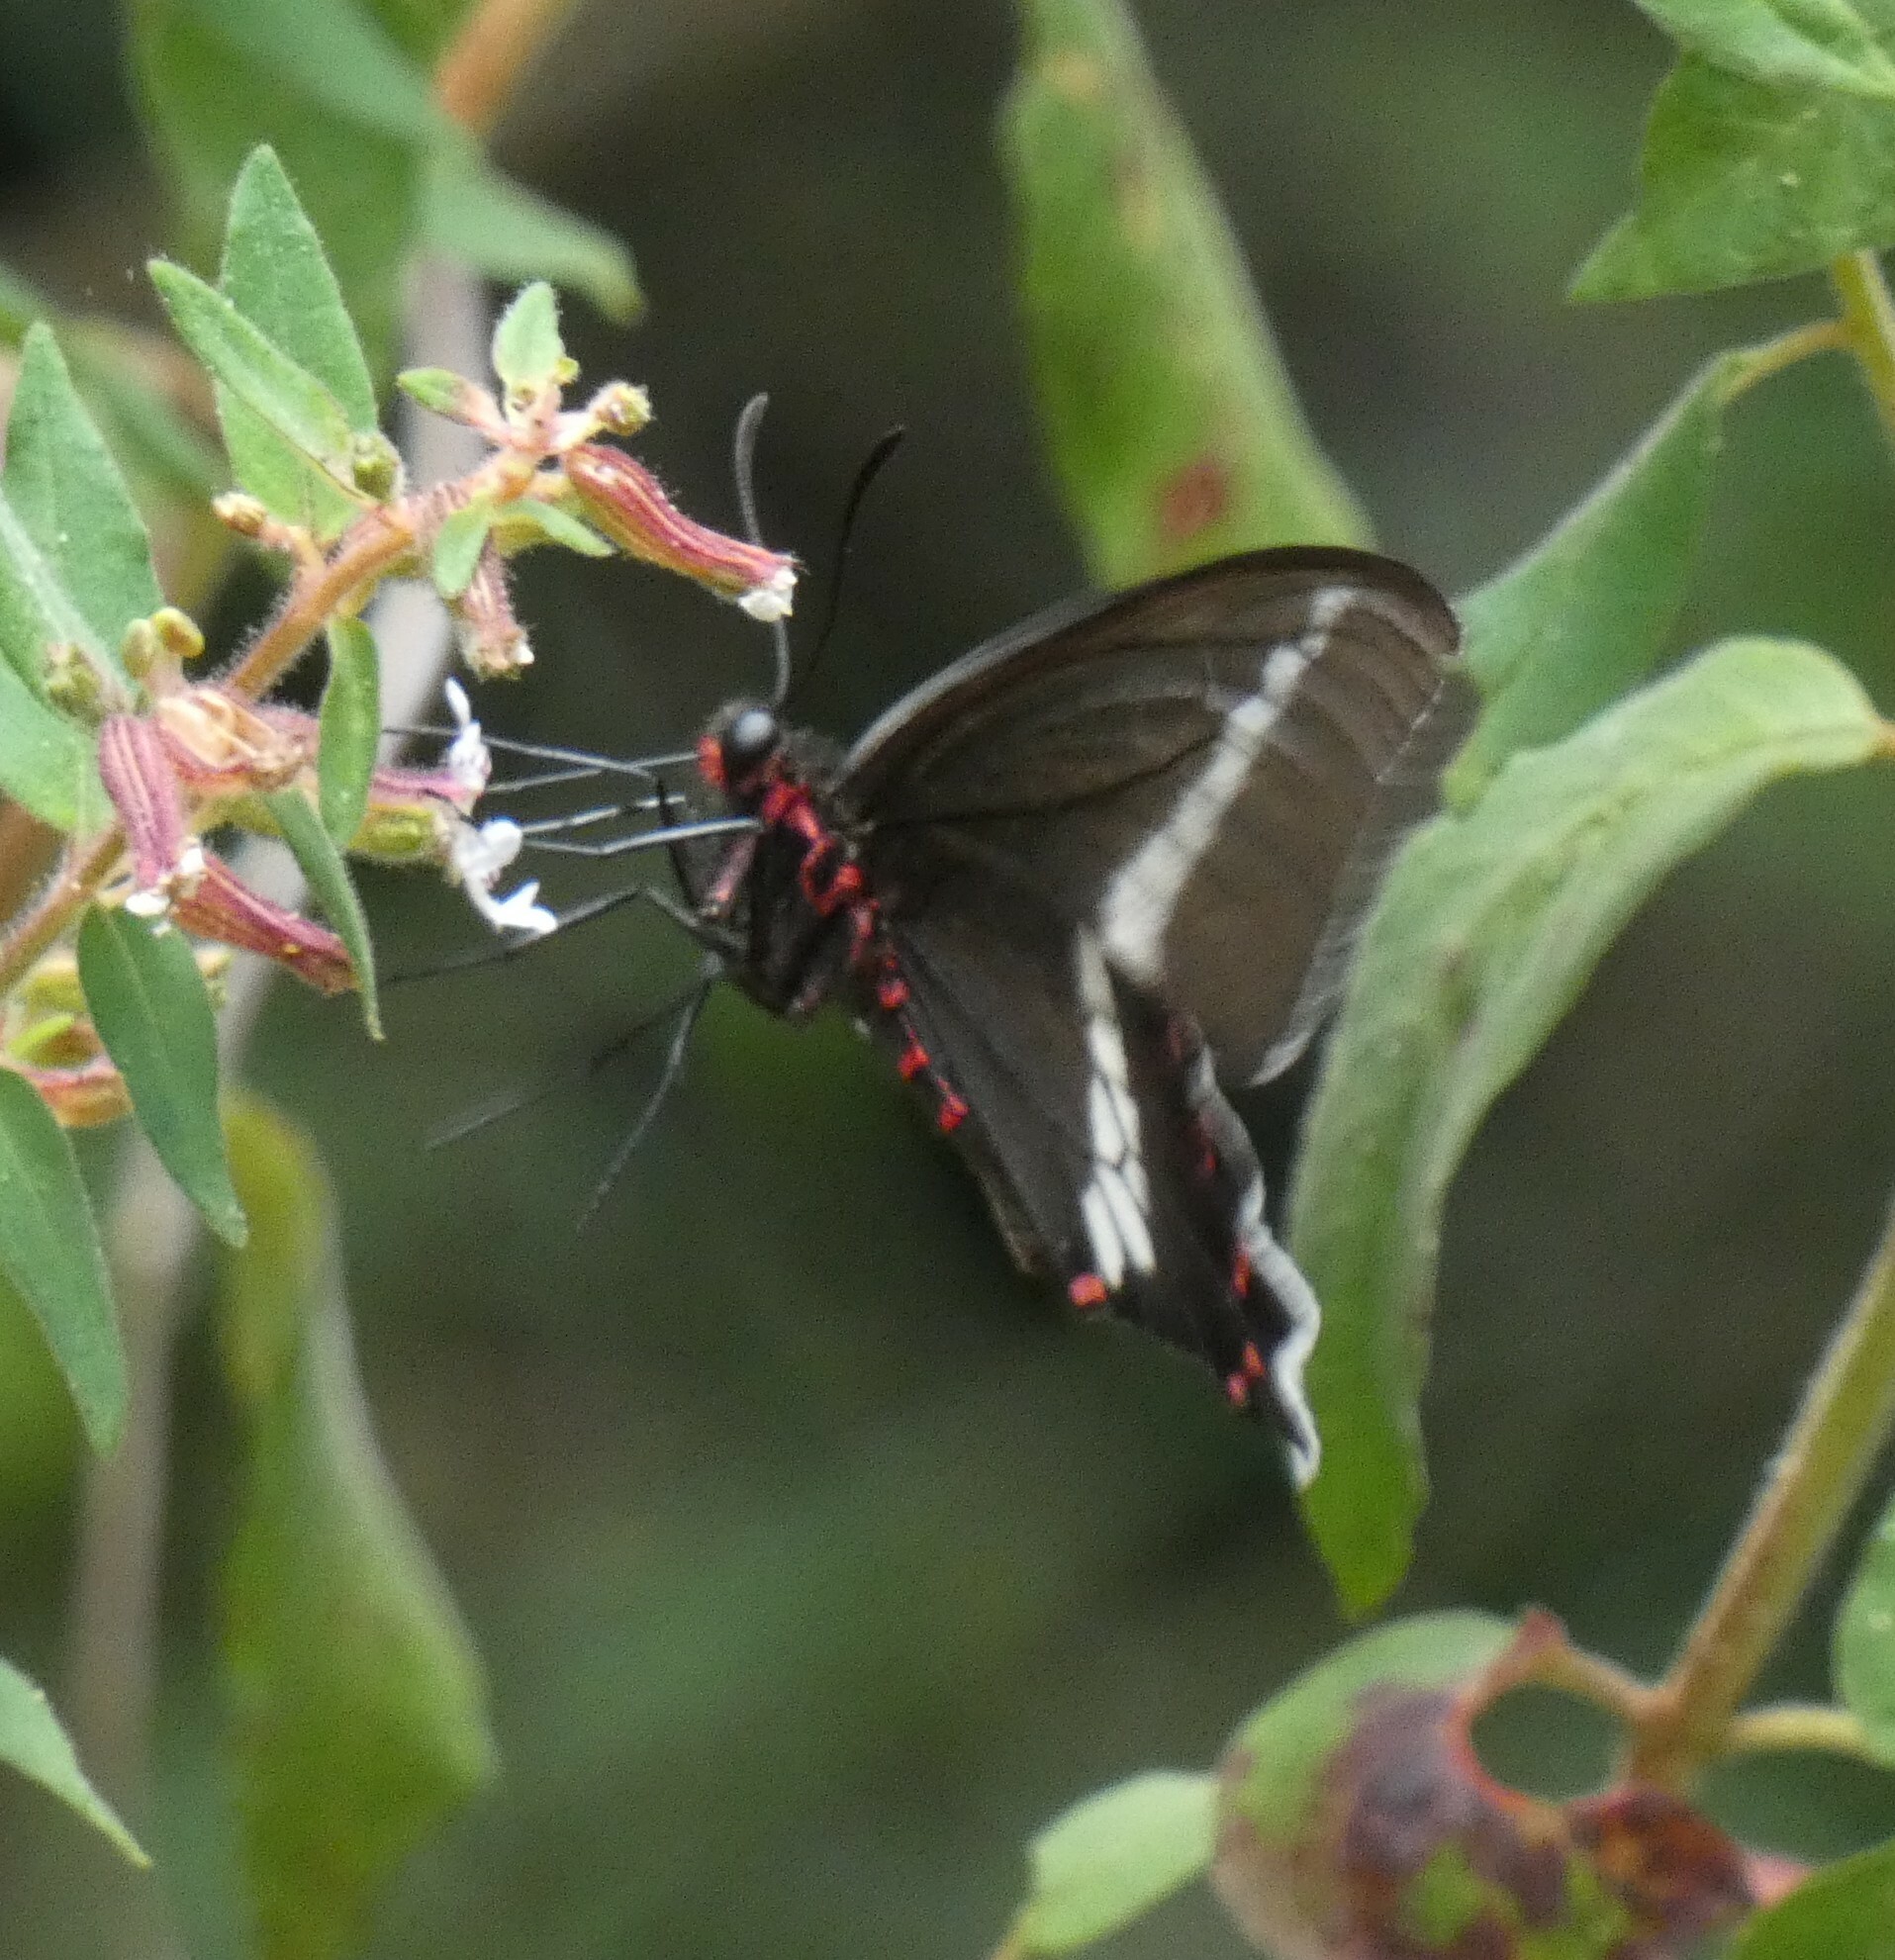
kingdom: Animalia
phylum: Arthropoda
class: Insecta
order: Lepidoptera
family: Papilionidae
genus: Parides
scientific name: Parides bunichus
